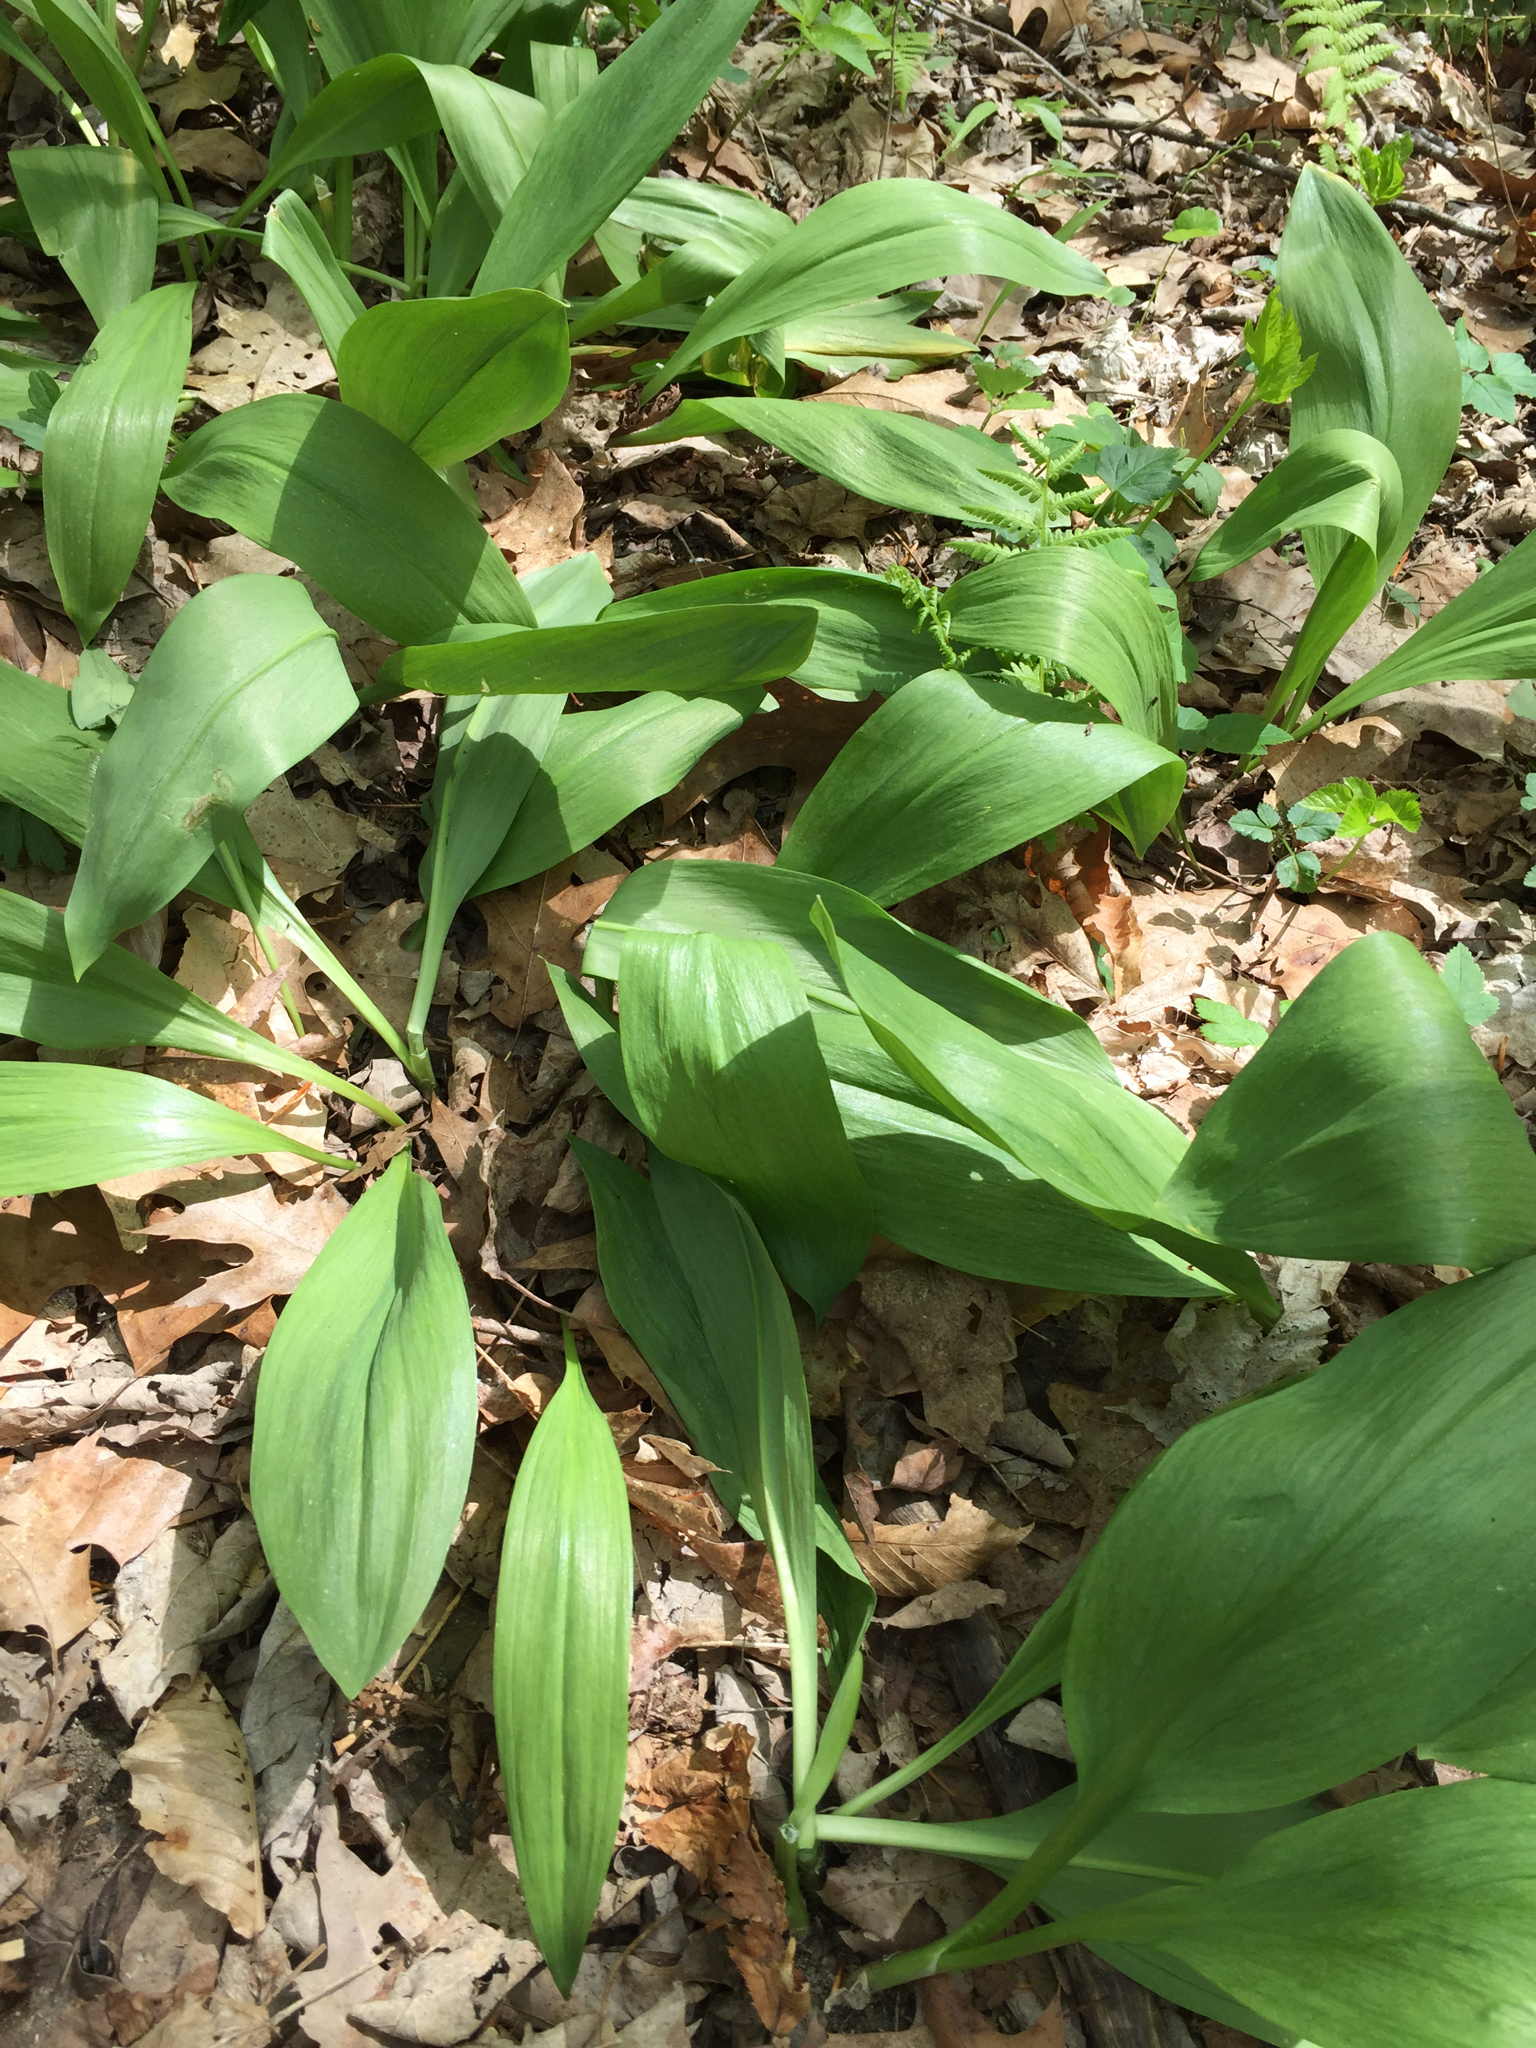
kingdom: Plantae
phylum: Tracheophyta
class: Liliopsida
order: Asparagales
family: Amaryllidaceae
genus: Allium
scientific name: Allium tricoccum
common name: Ramp
